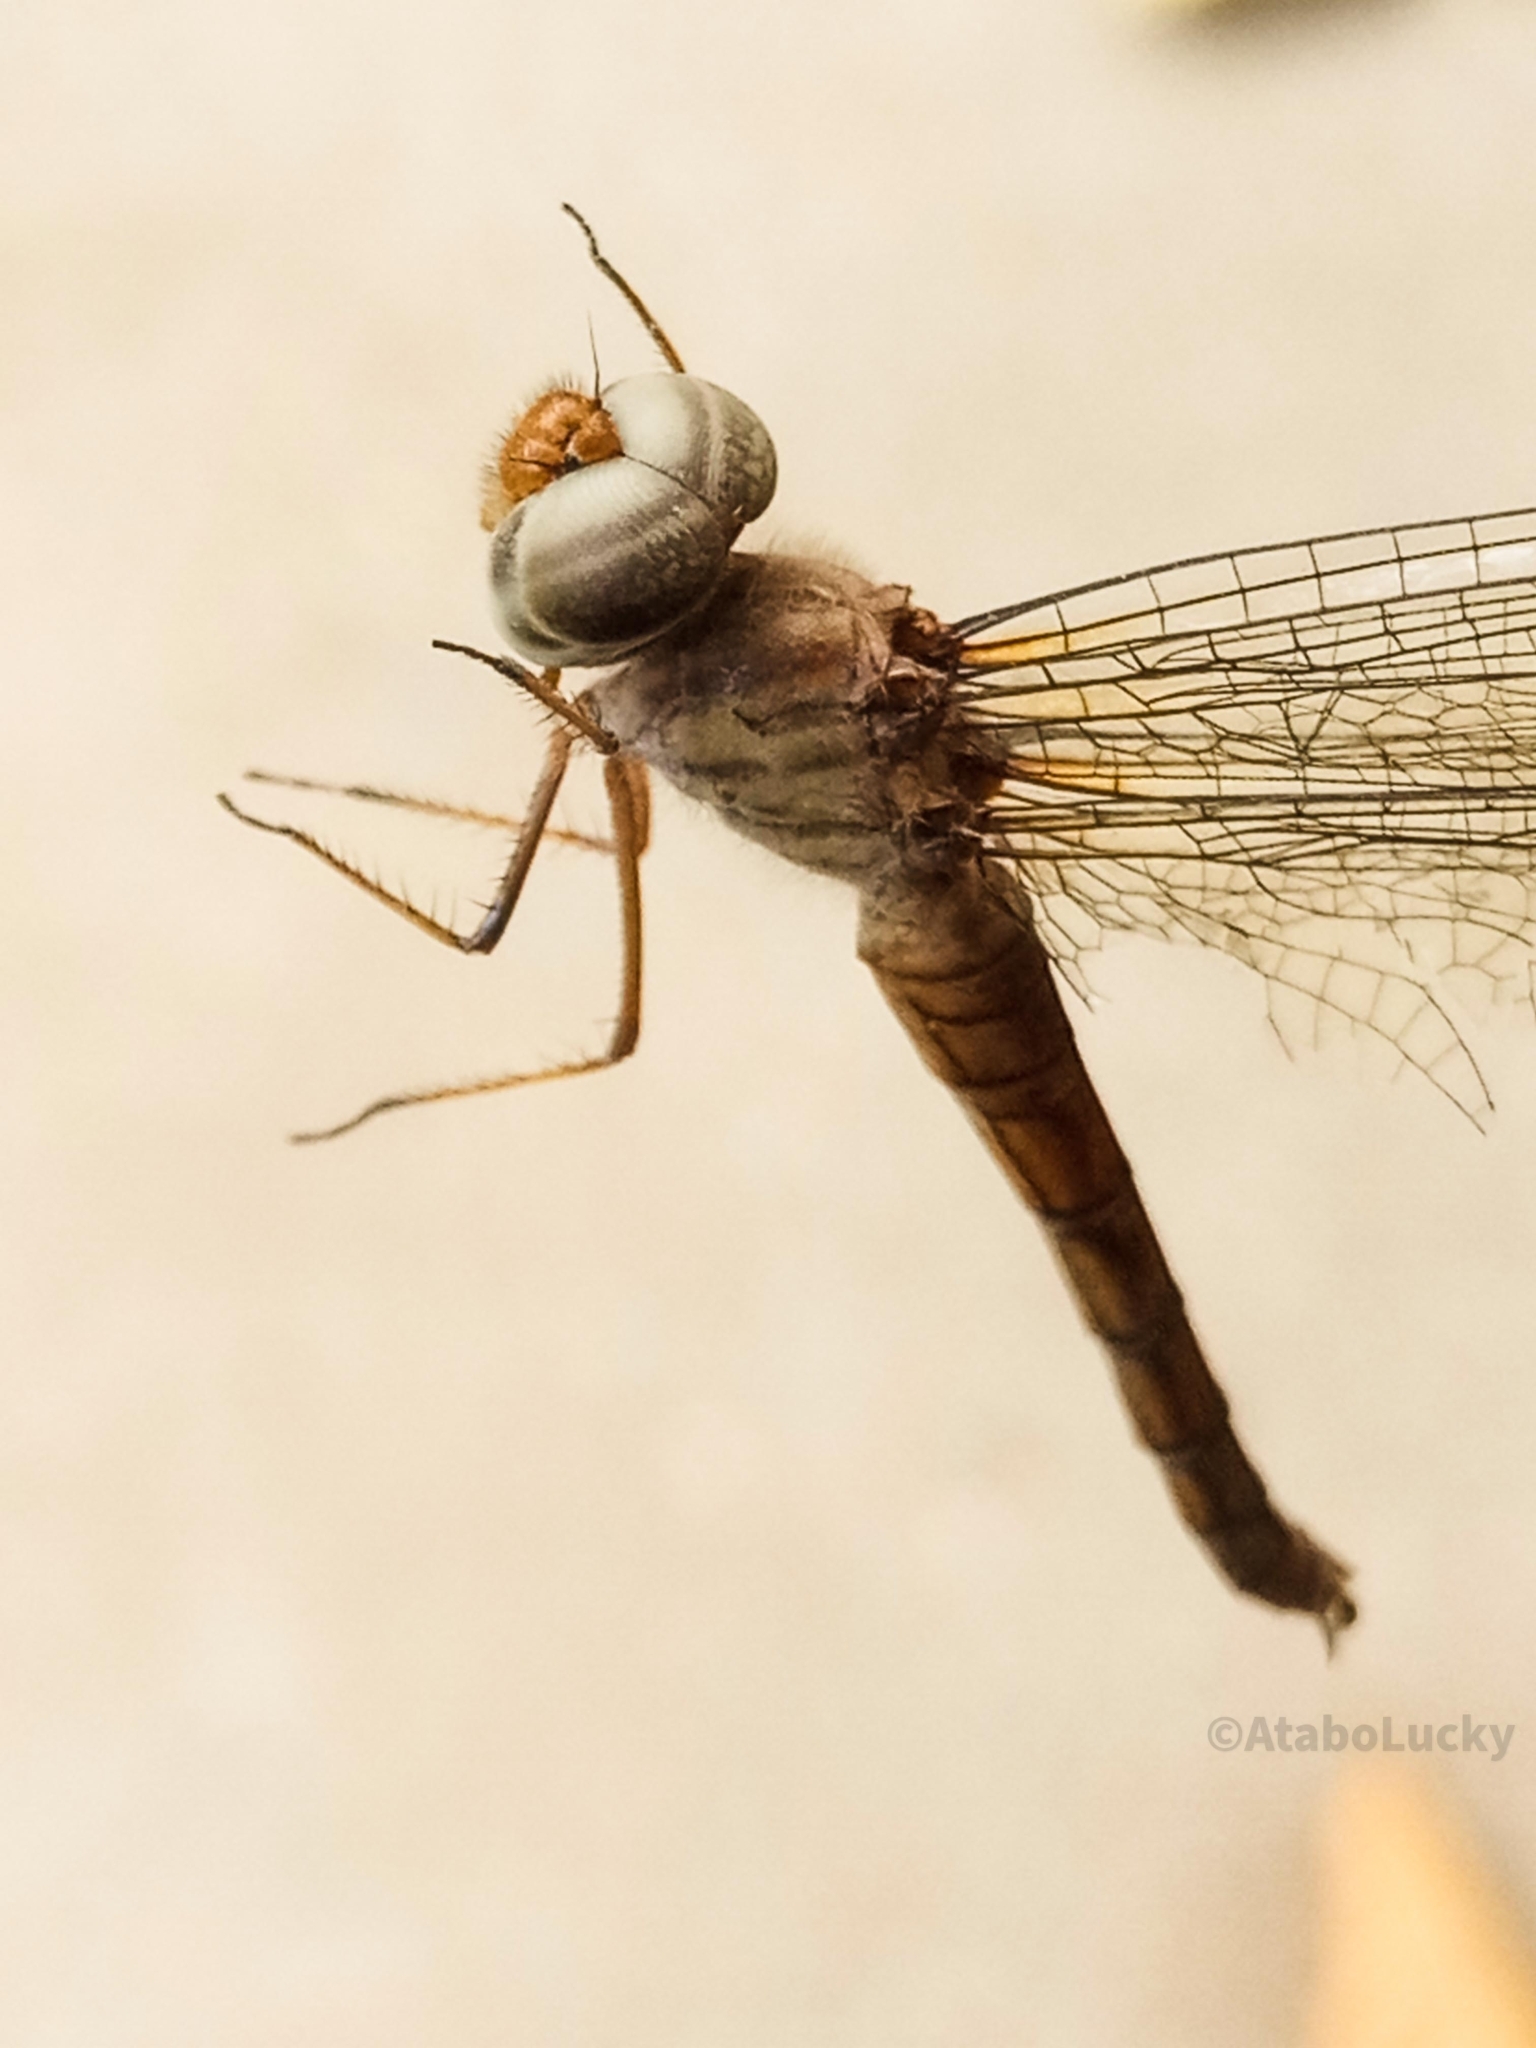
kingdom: Animalia
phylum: Arthropoda
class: Insecta
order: Odonata
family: Libellulidae
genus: Parazyxomma
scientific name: Parazyxomma flavicans
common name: Banded duskdarter
